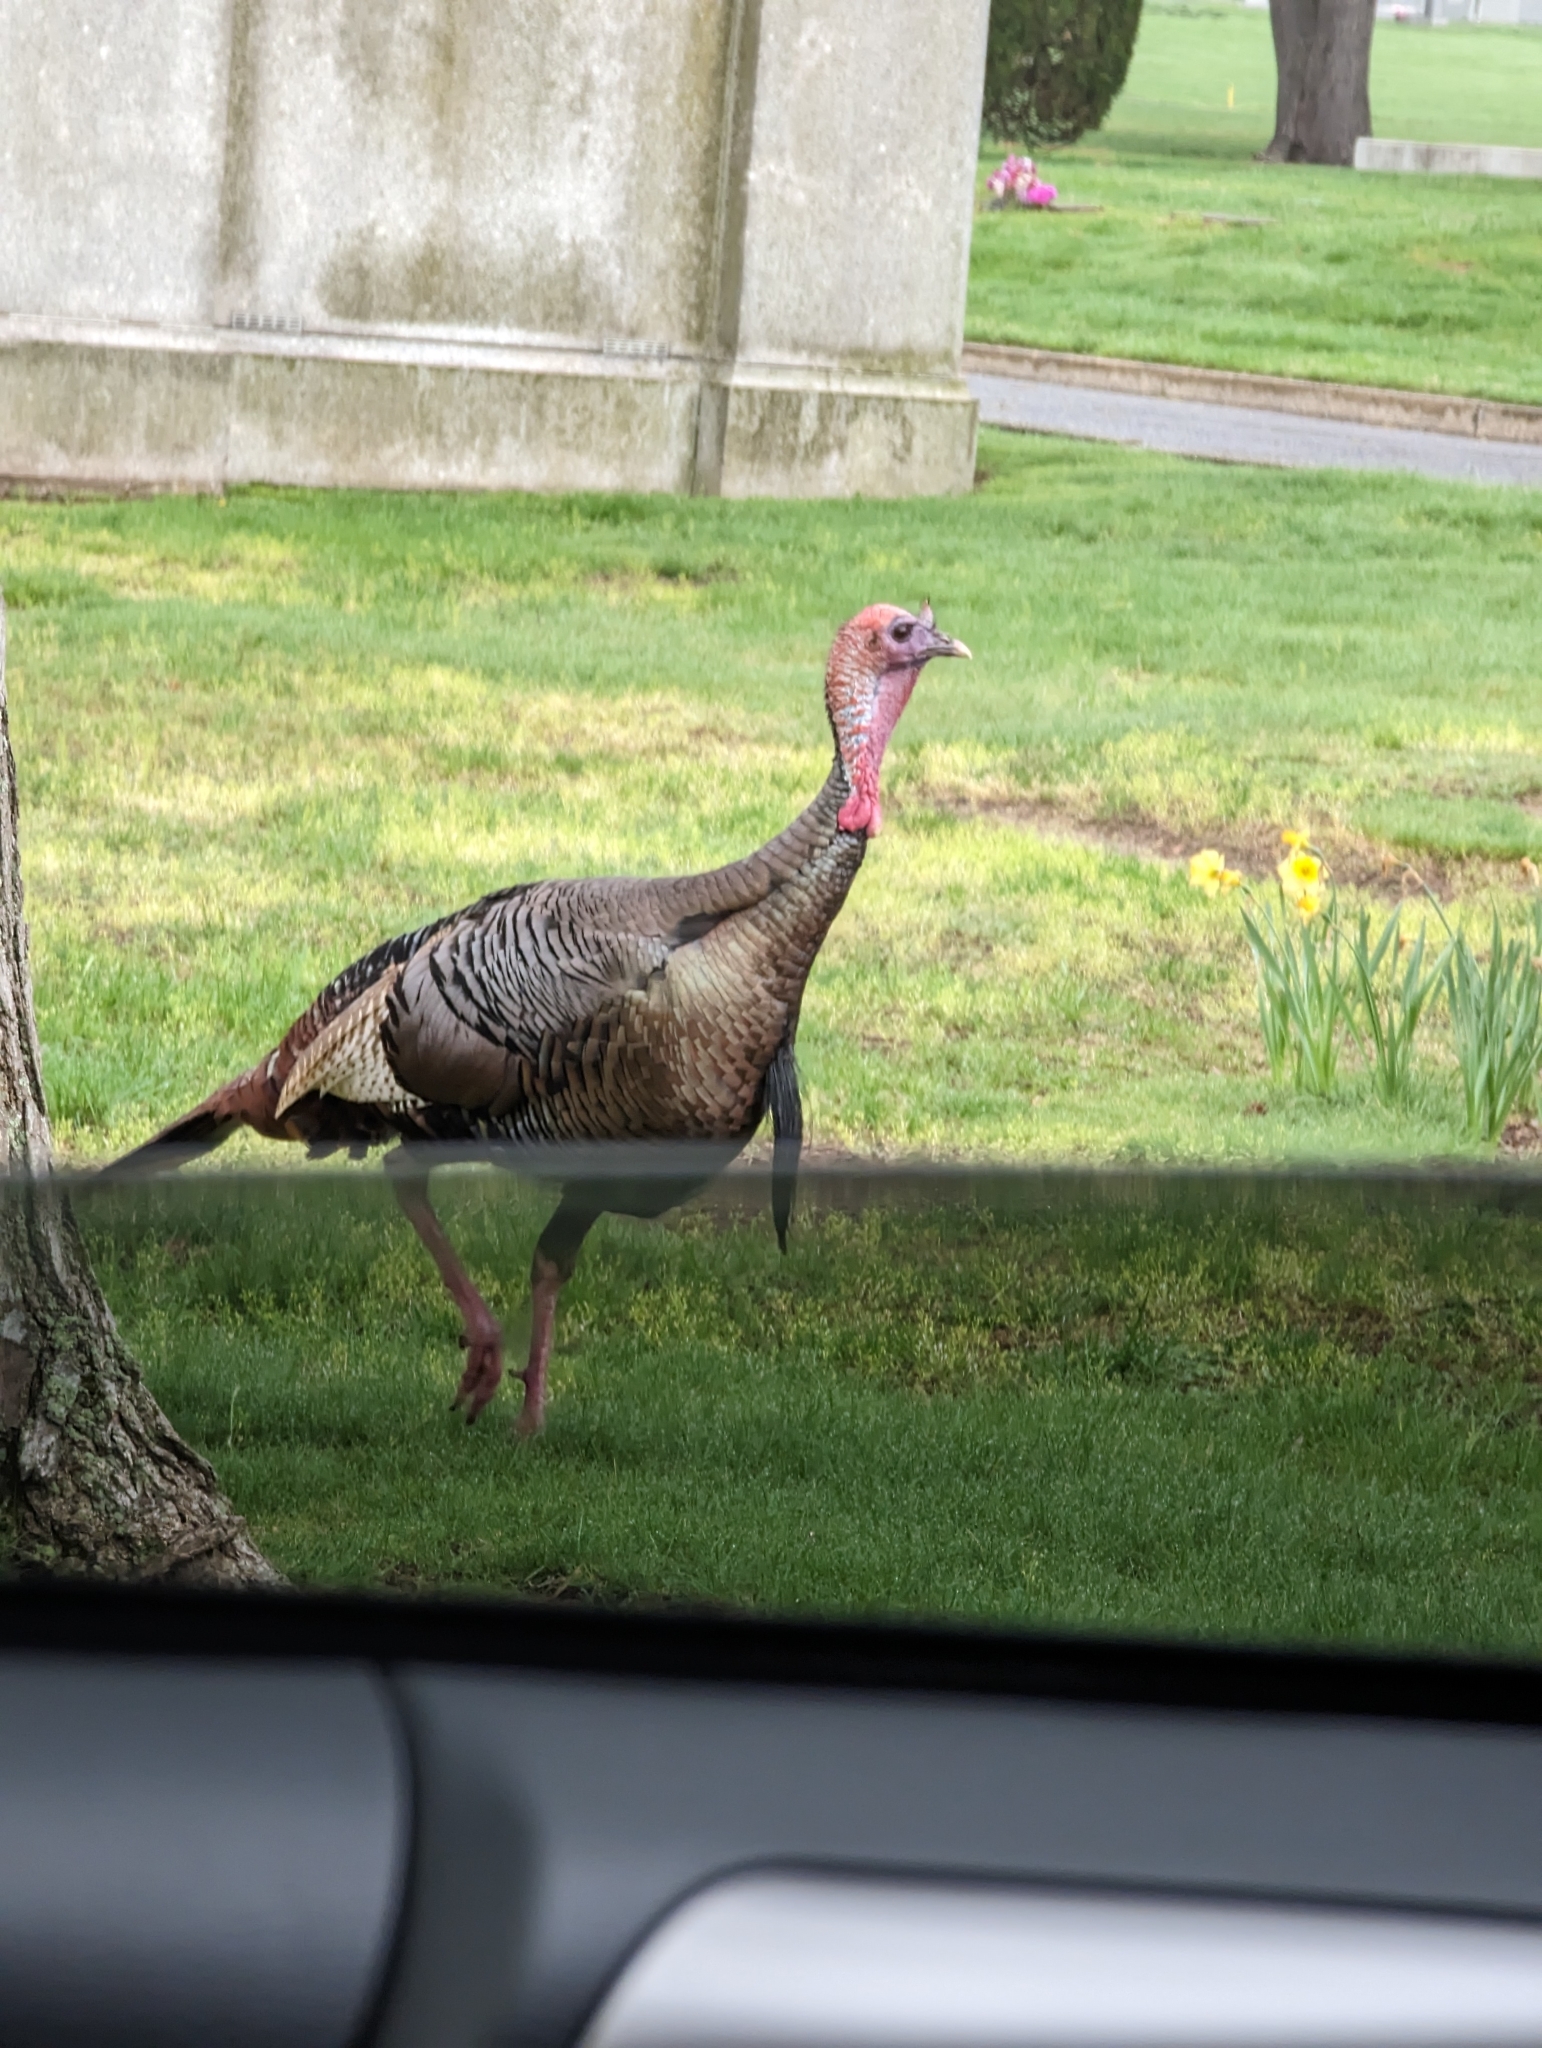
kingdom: Animalia
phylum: Chordata
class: Aves
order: Galliformes
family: Phasianidae
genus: Meleagris
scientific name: Meleagris gallopavo
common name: Wild turkey
